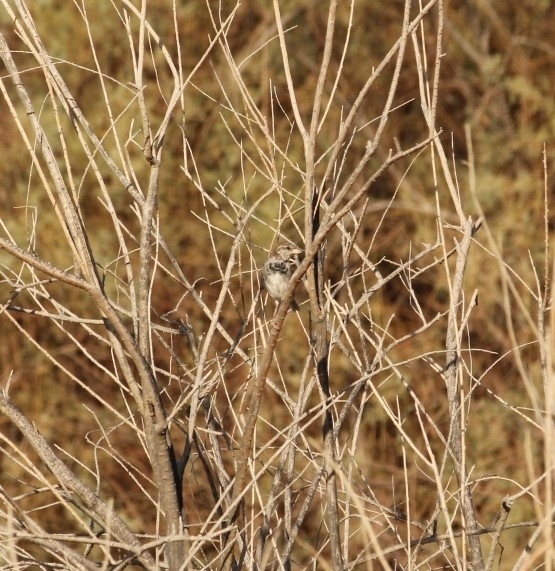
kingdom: Animalia
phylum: Chordata
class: Aves
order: Passeriformes
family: Passeridae
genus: Passer
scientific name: Passer domesticus
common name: House sparrow
